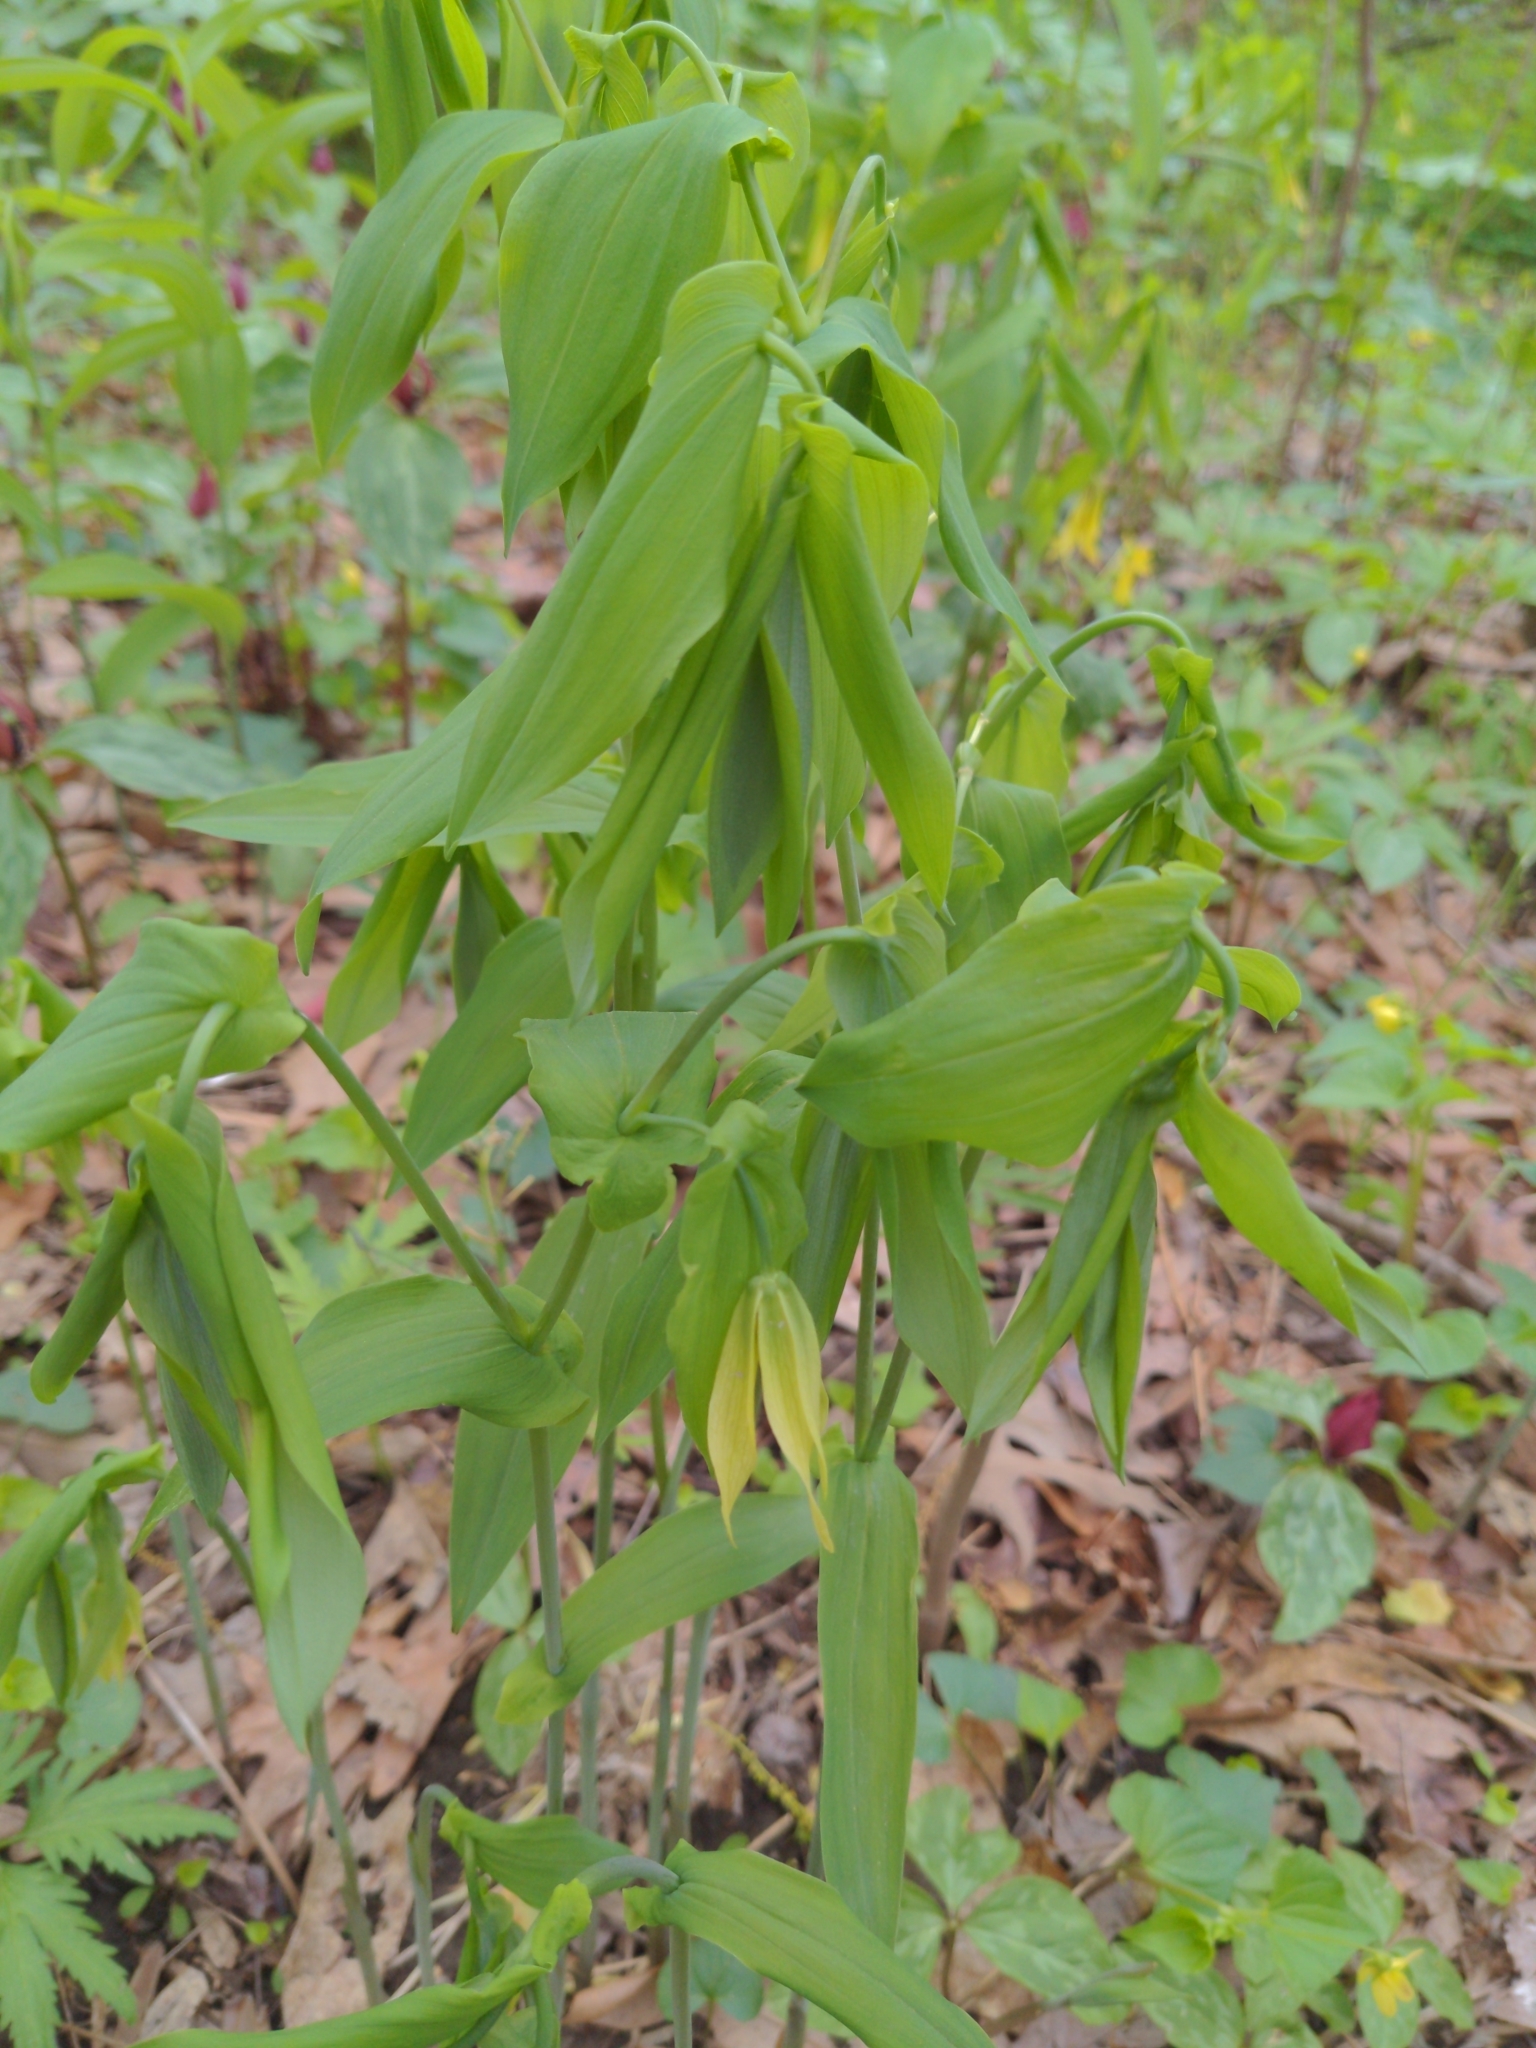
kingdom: Plantae
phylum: Tracheophyta
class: Liliopsida
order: Liliales
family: Colchicaceae
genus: Uvularia
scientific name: Uvularia grandiflora
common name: Bellwort
